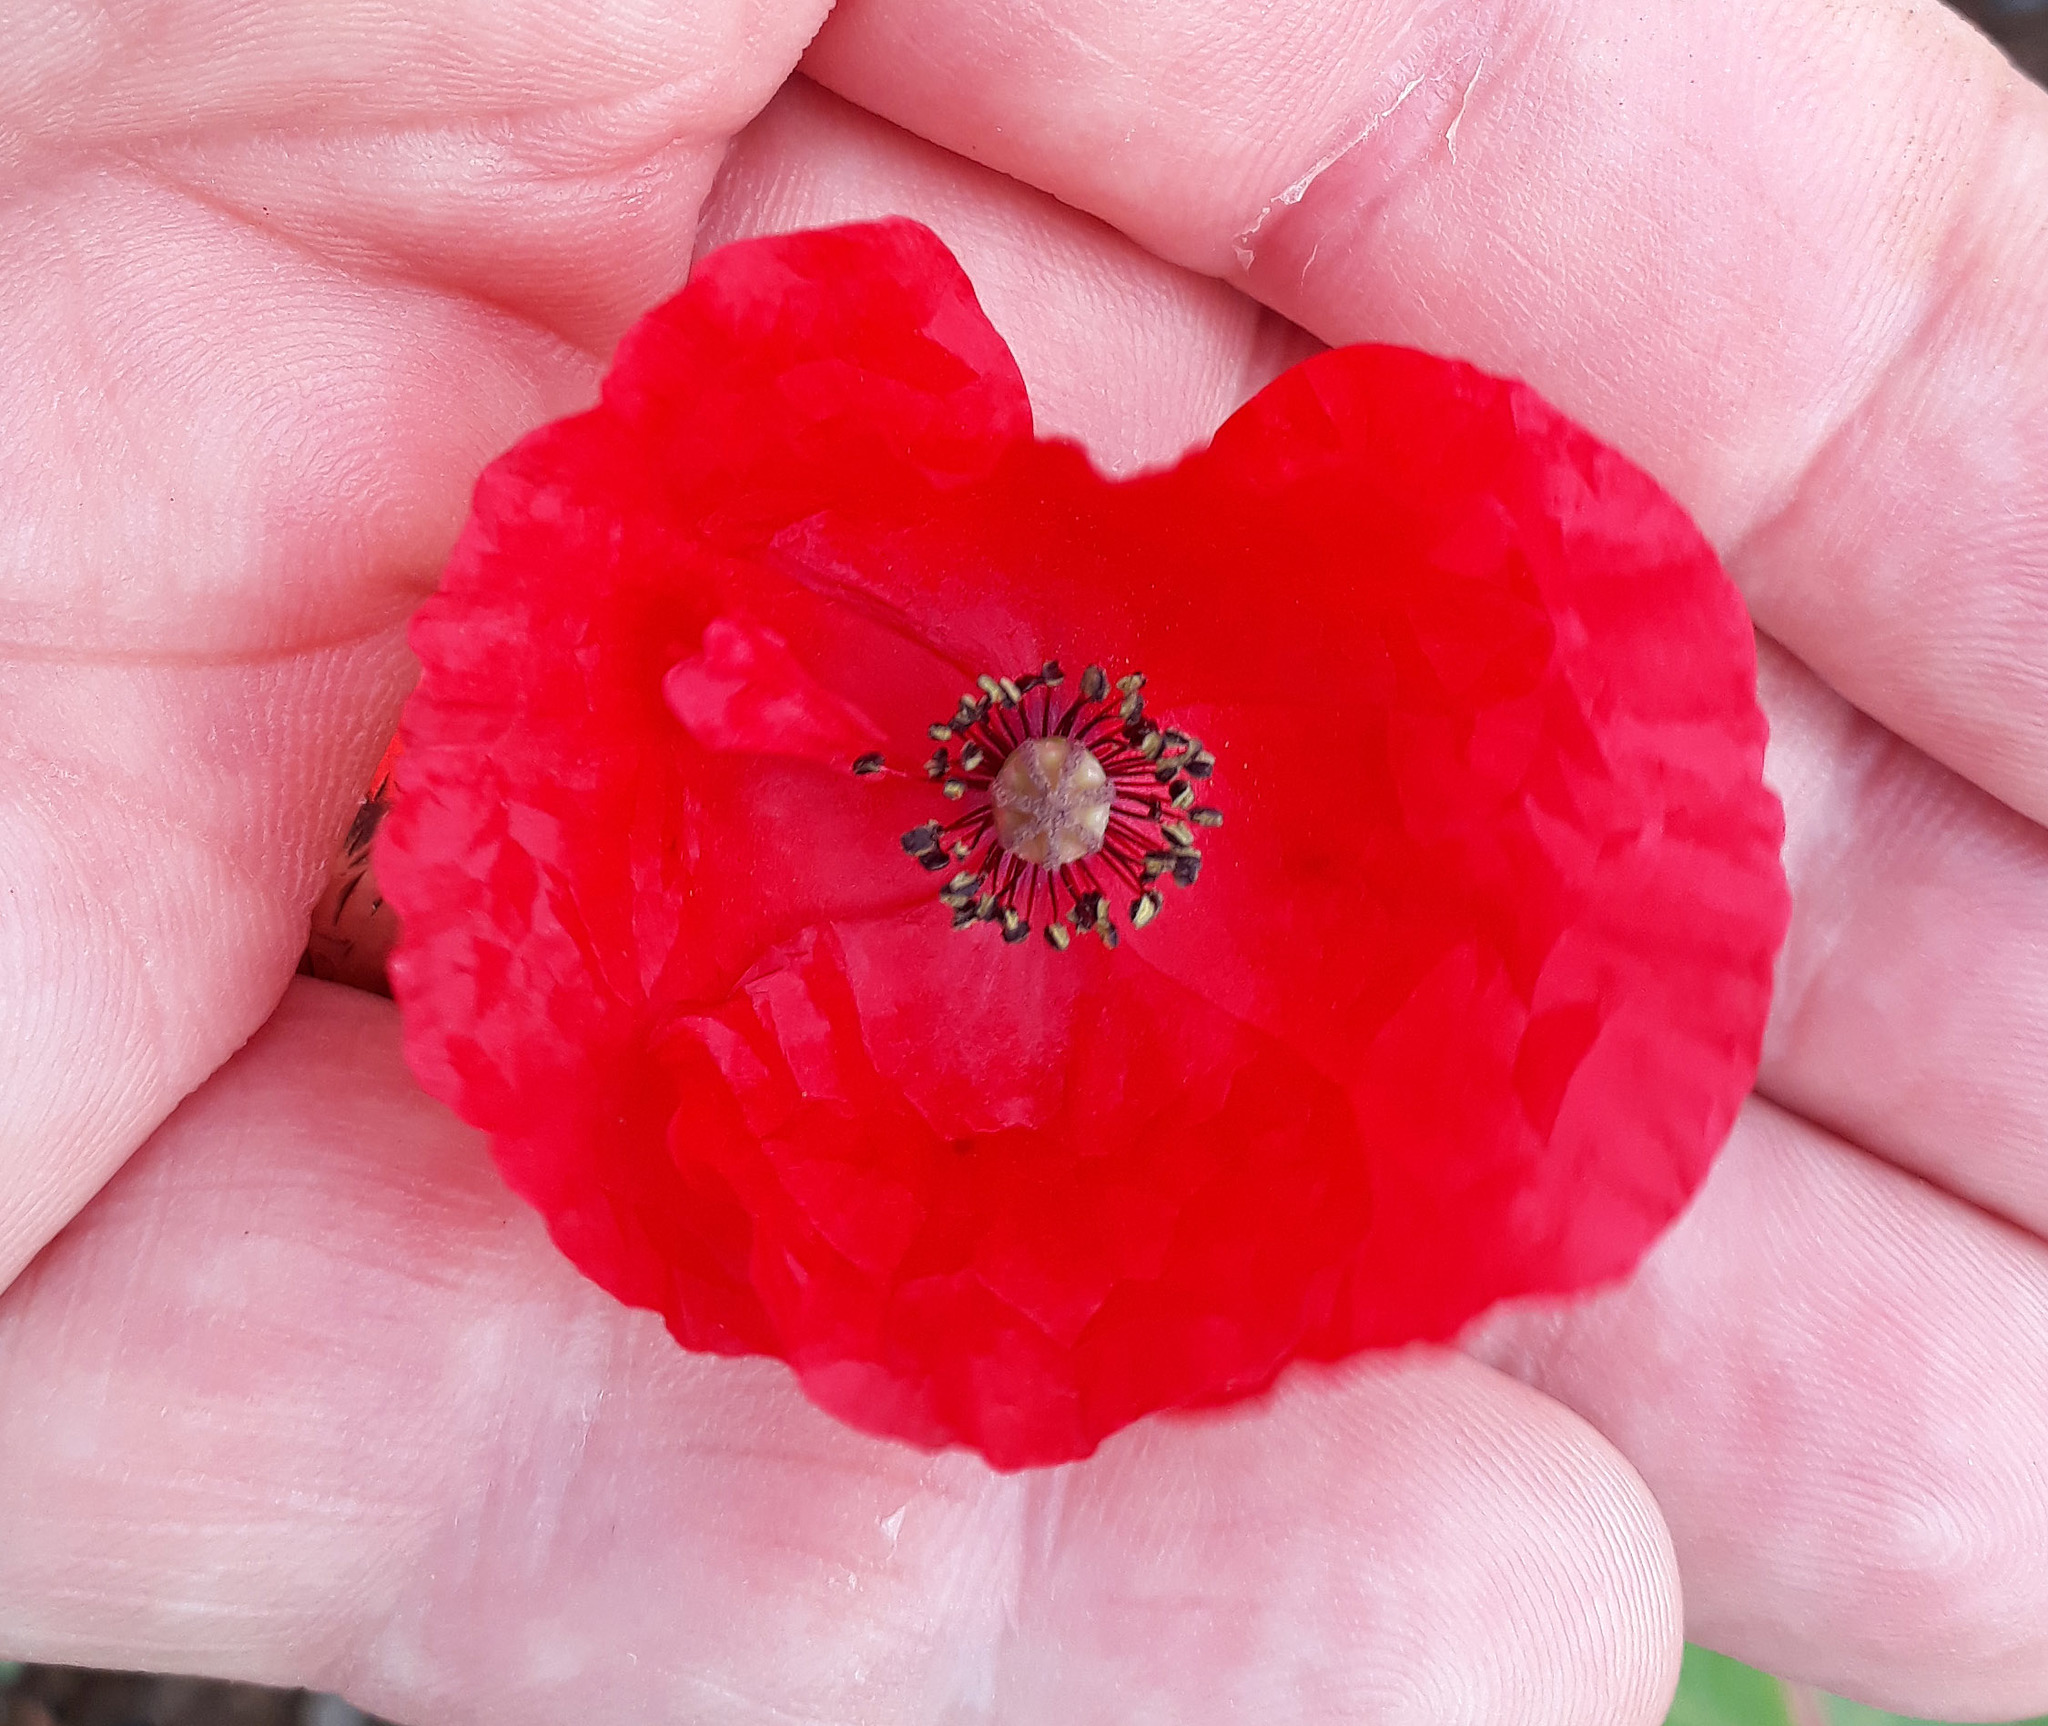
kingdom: Plantae
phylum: Tracheophyta
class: Magnoliopsida
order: Ranunculales
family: Papaveraceae
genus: Papaver
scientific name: Papaver rhoeas
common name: Corn poppy
